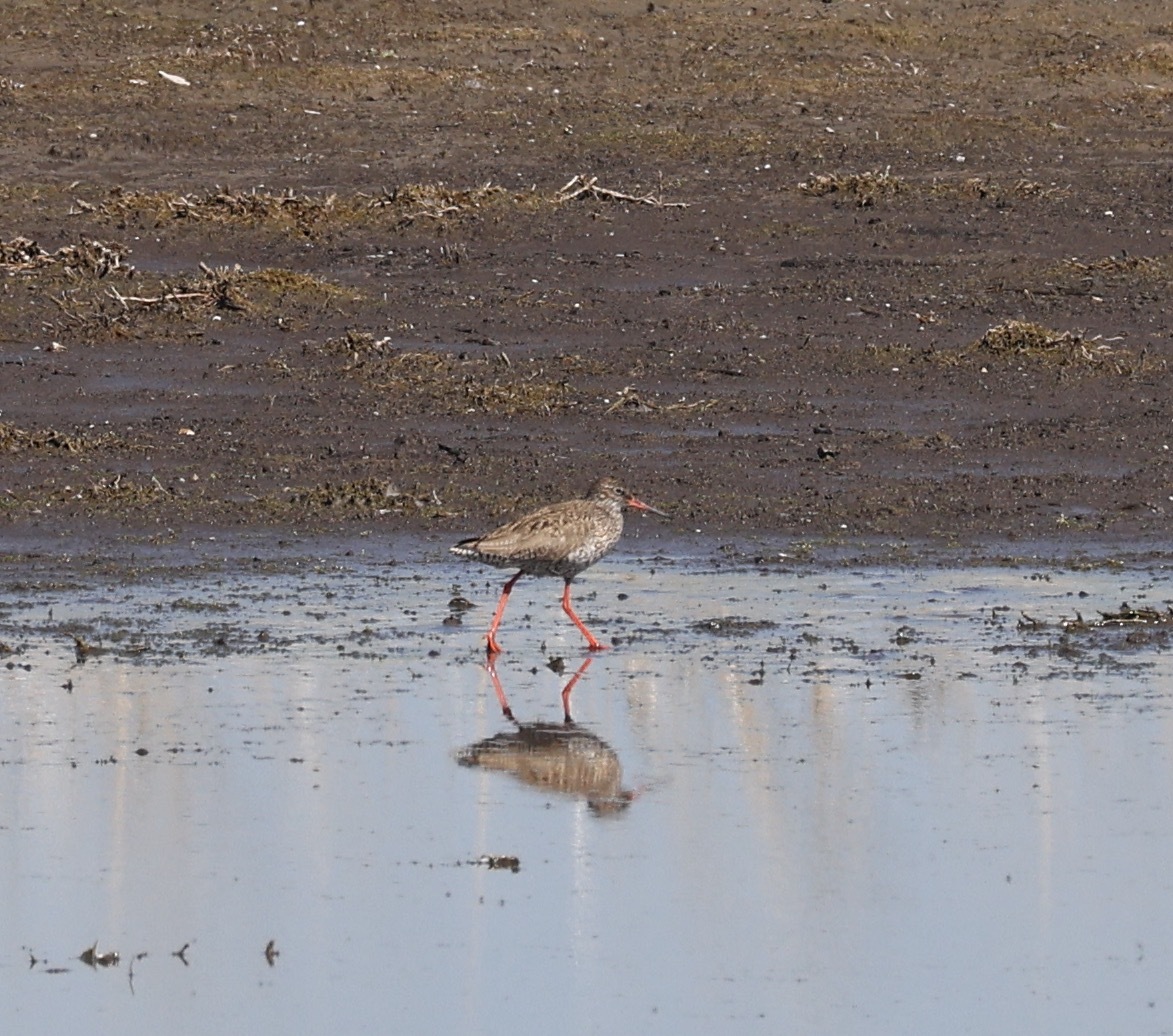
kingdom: Animalia
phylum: Chordata
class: Aves
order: Charadriiformes
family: Scolopacidae
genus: Tringa
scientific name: Tringa totanus
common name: Common redshank
